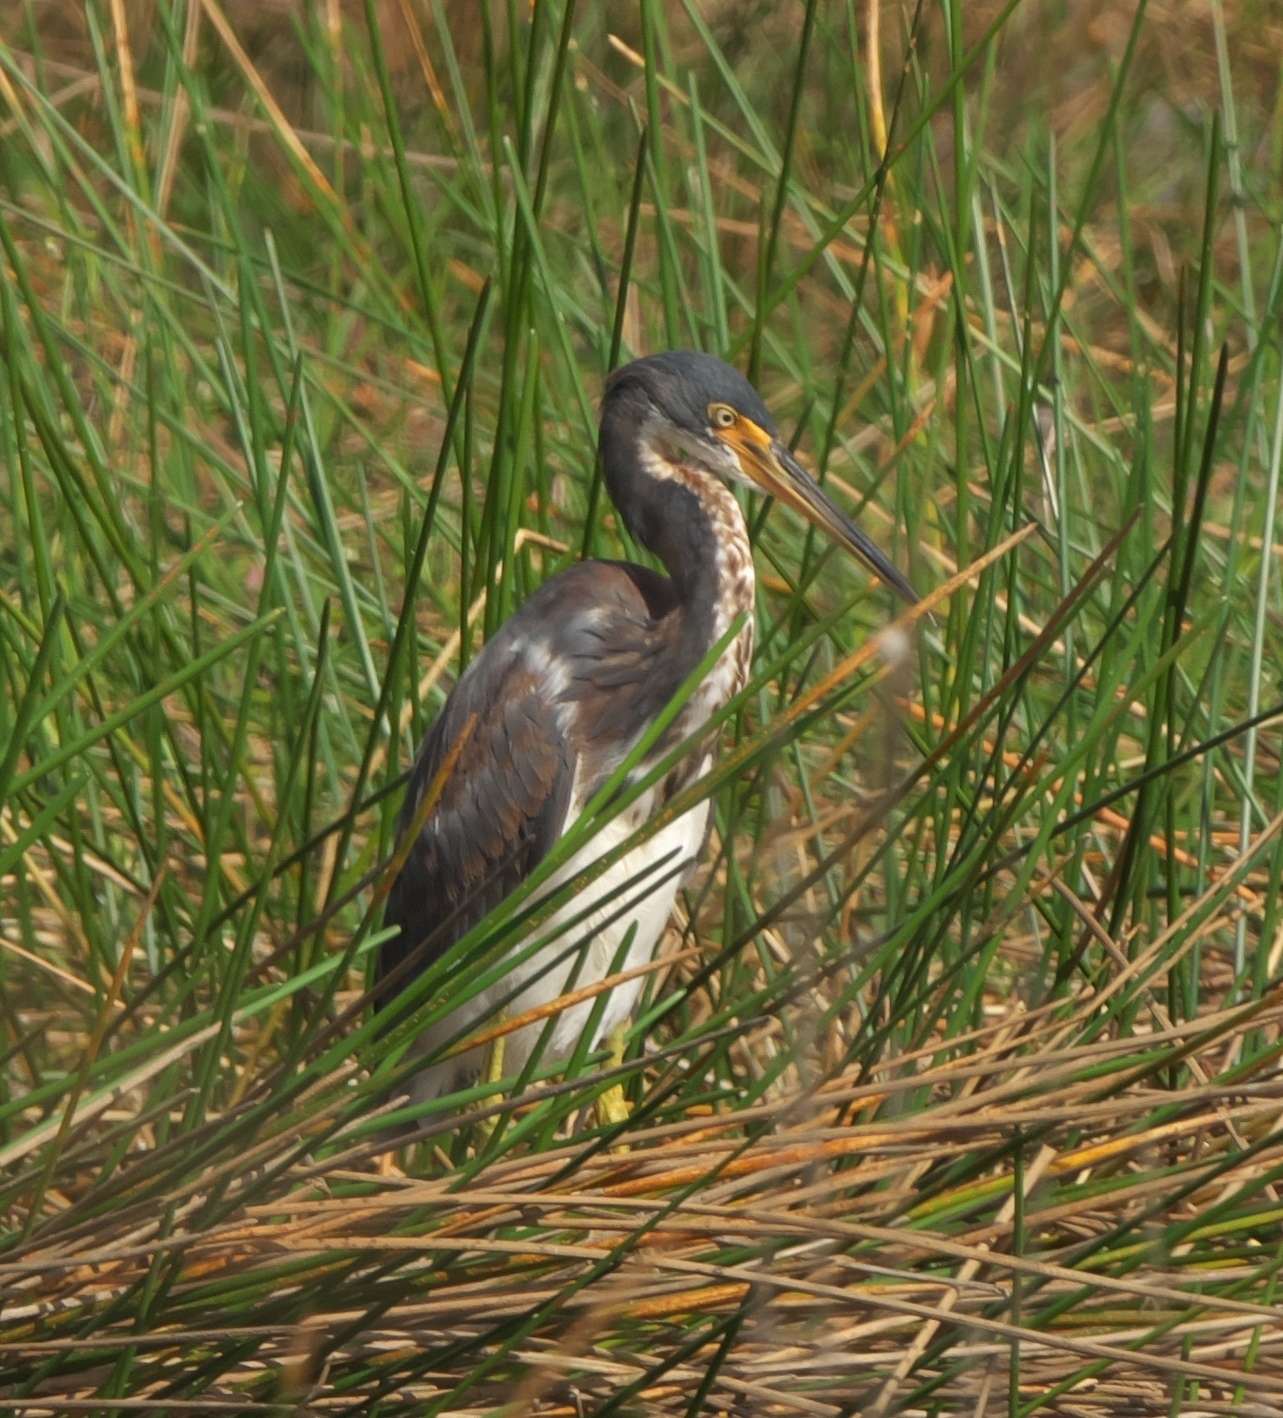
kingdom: Animalia
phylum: Chordata
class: Aves
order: Pelecaniformes
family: Ardeidae
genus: Egretta
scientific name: Egretta tricolor
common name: Tricolored heron
